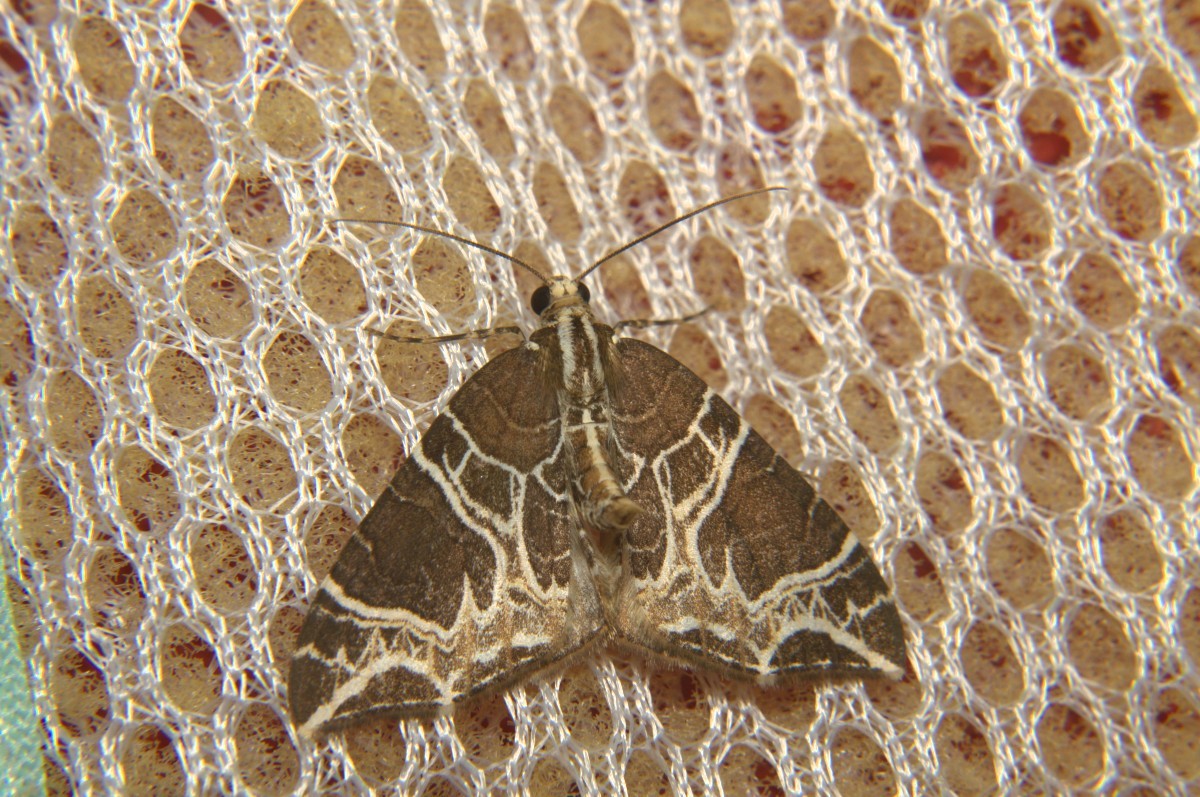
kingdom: Animalia
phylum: Arthropoda
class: Insecta
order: Lepidoptera
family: Geometridae
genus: Ecliptopera
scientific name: Ecliptopera delecta
